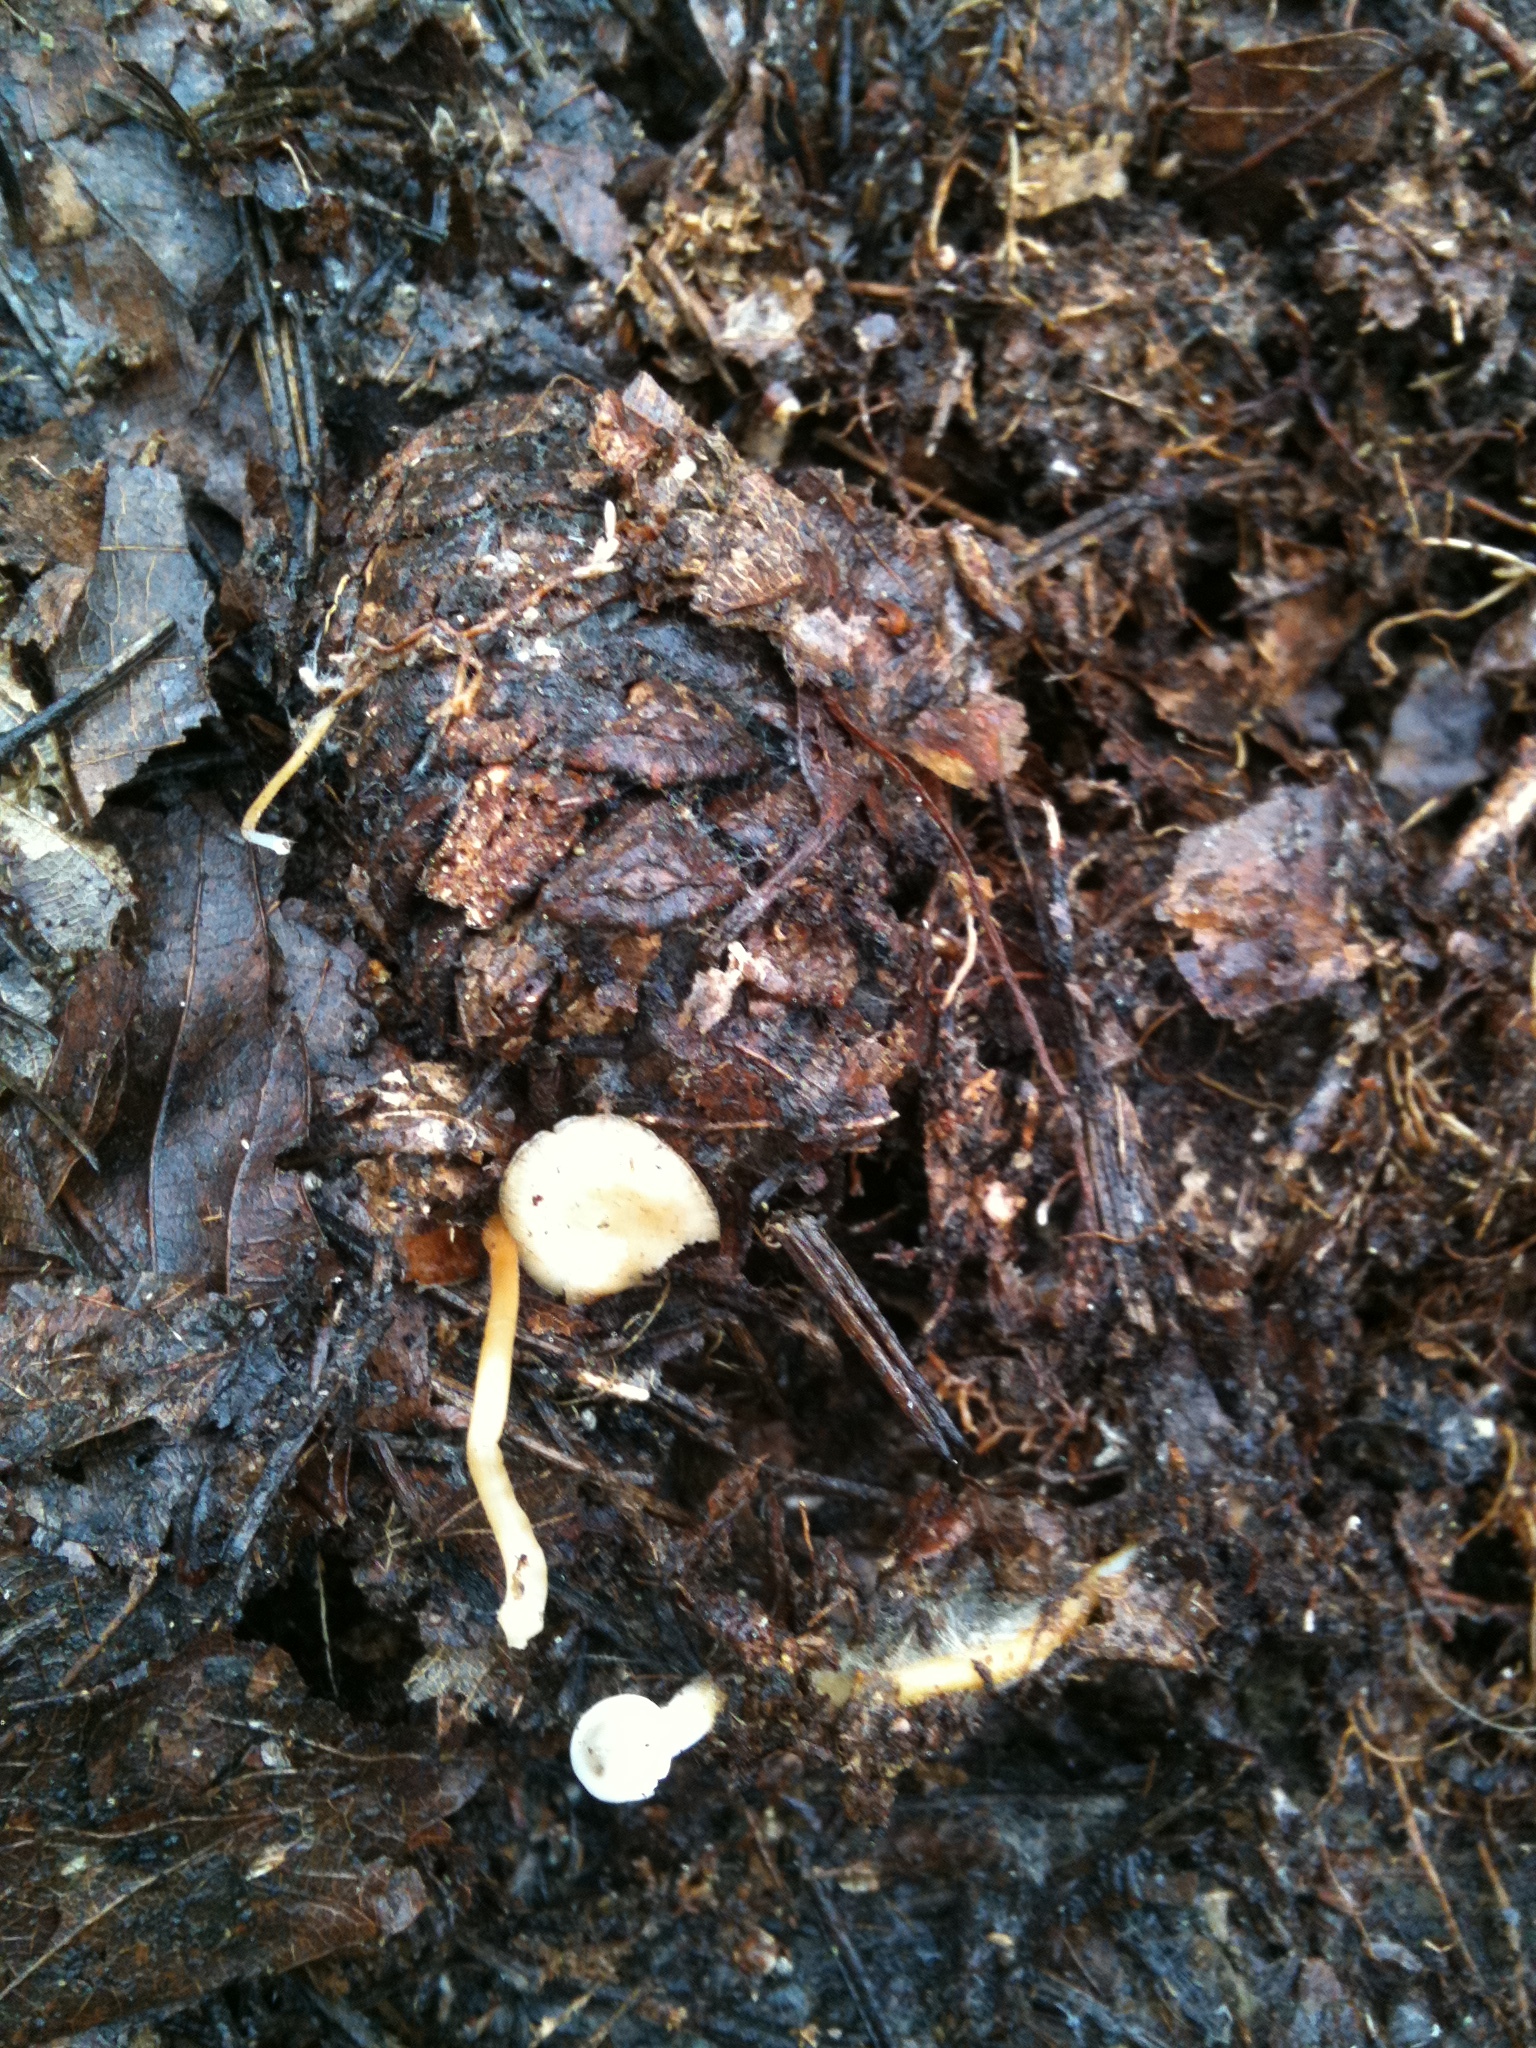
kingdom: Fungi
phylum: Basidiomycota
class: Agaricomycetes
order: Agaricales
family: Physalacriaceae
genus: Strobilurus
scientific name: Strobilurus stephanocystis
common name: Russian conecap
